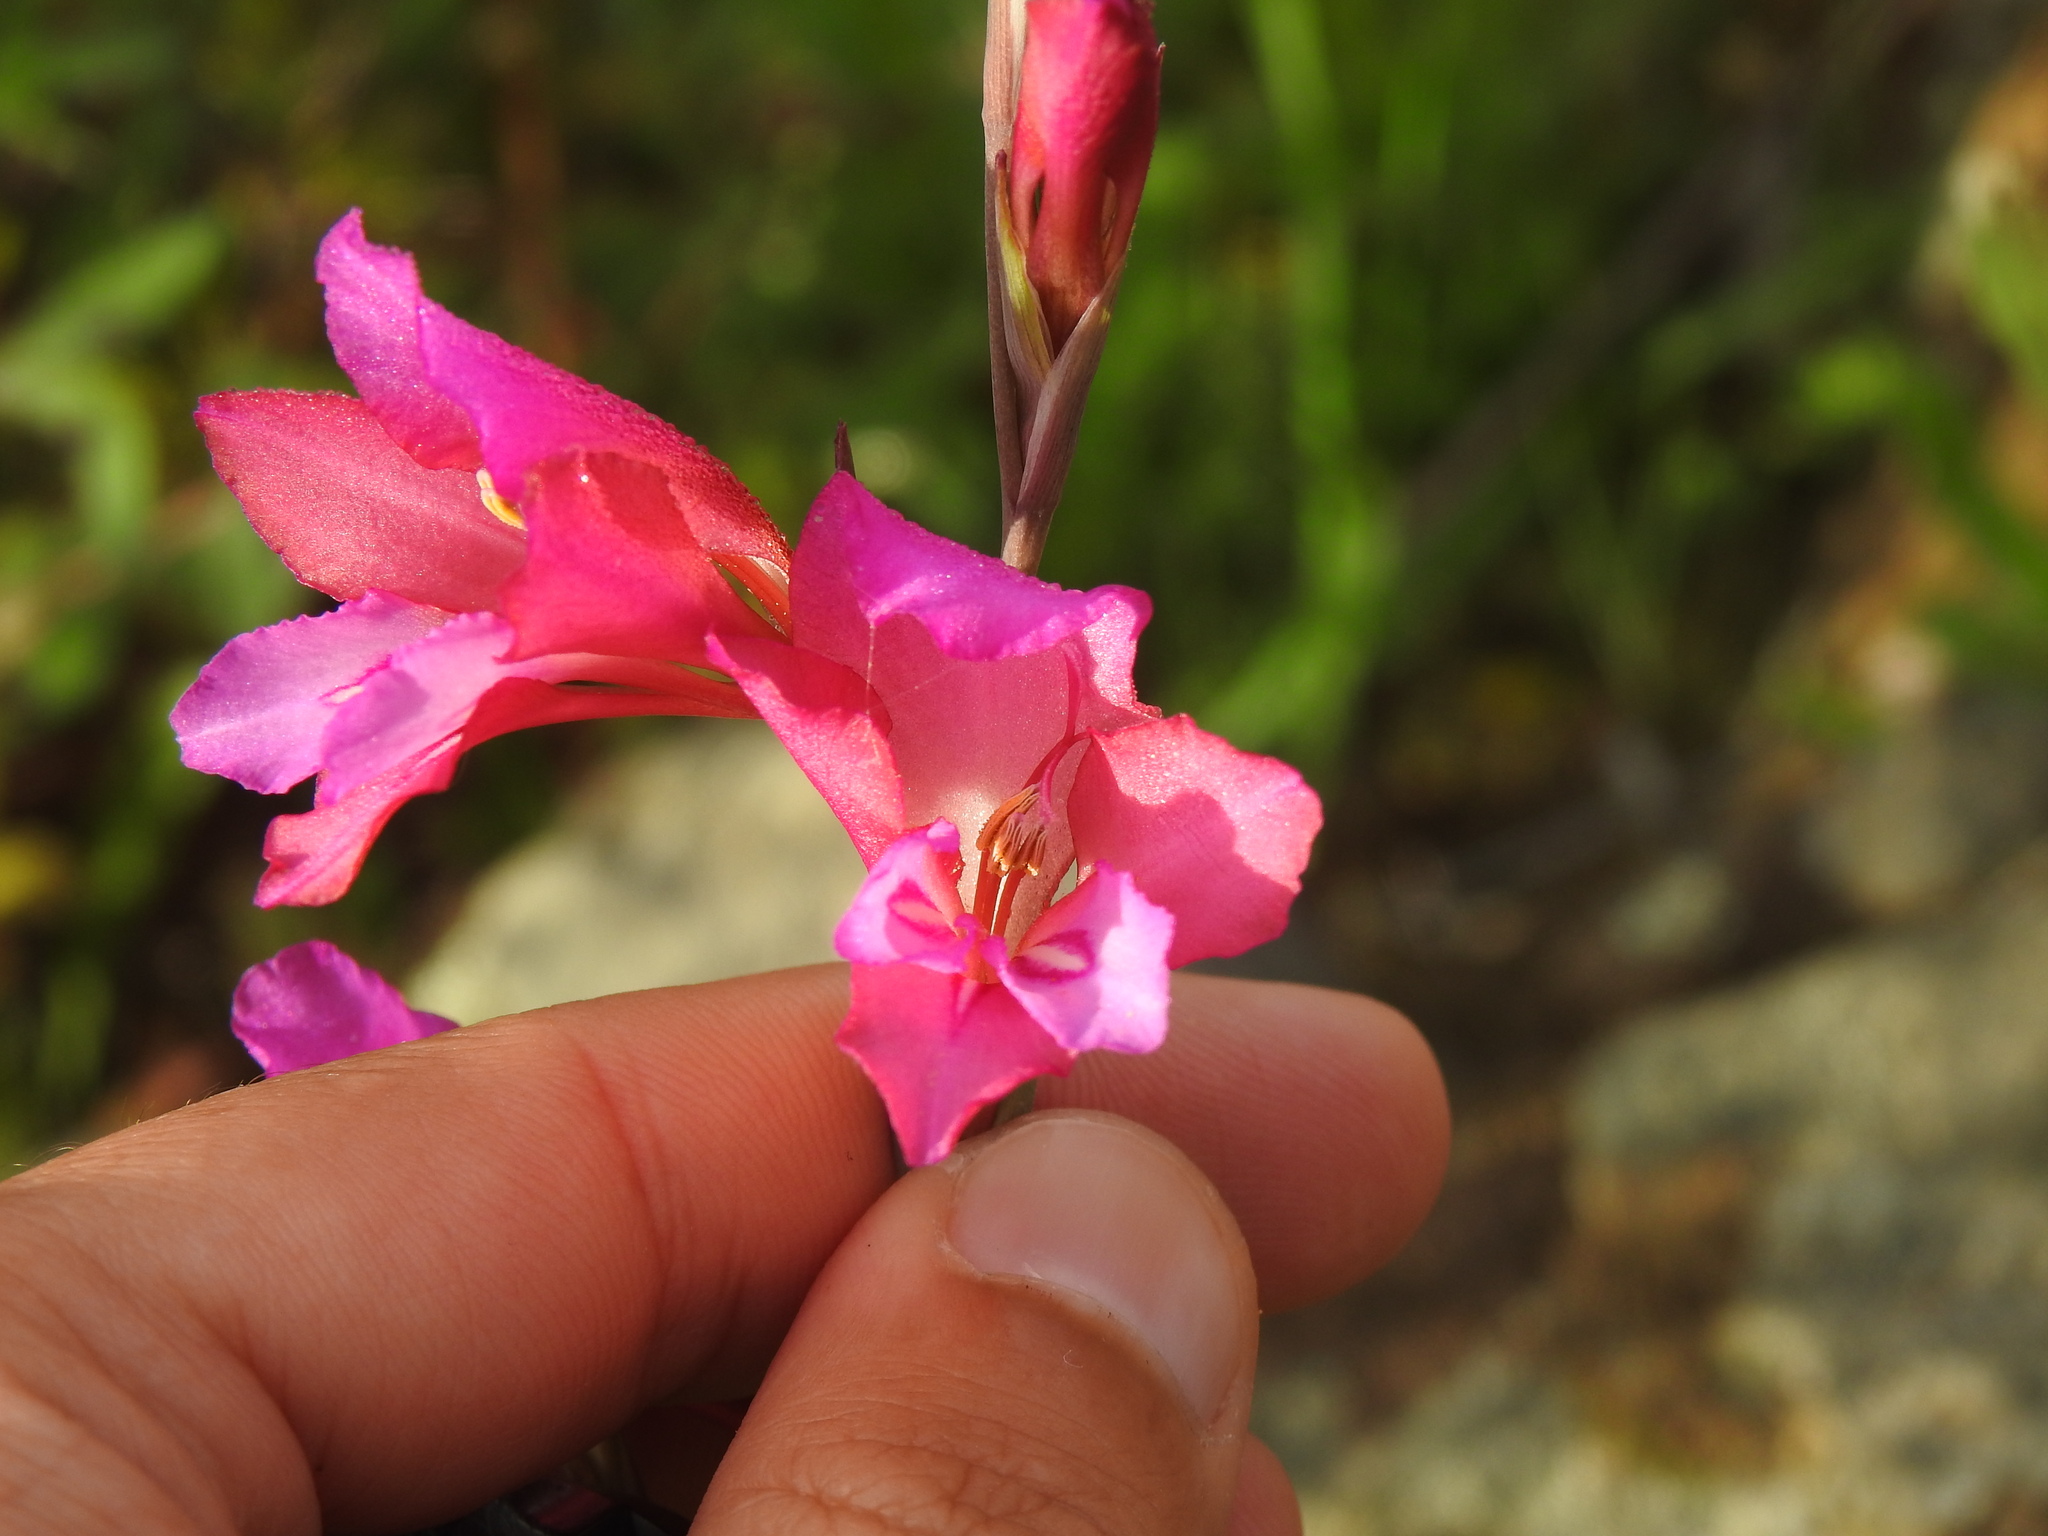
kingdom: Plantae
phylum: Tracheophyta
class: Liliopsida
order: Asparagales
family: Iridaceae
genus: Gladiolus
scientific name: Gladiolus illyricus
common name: Wild gladiolus
